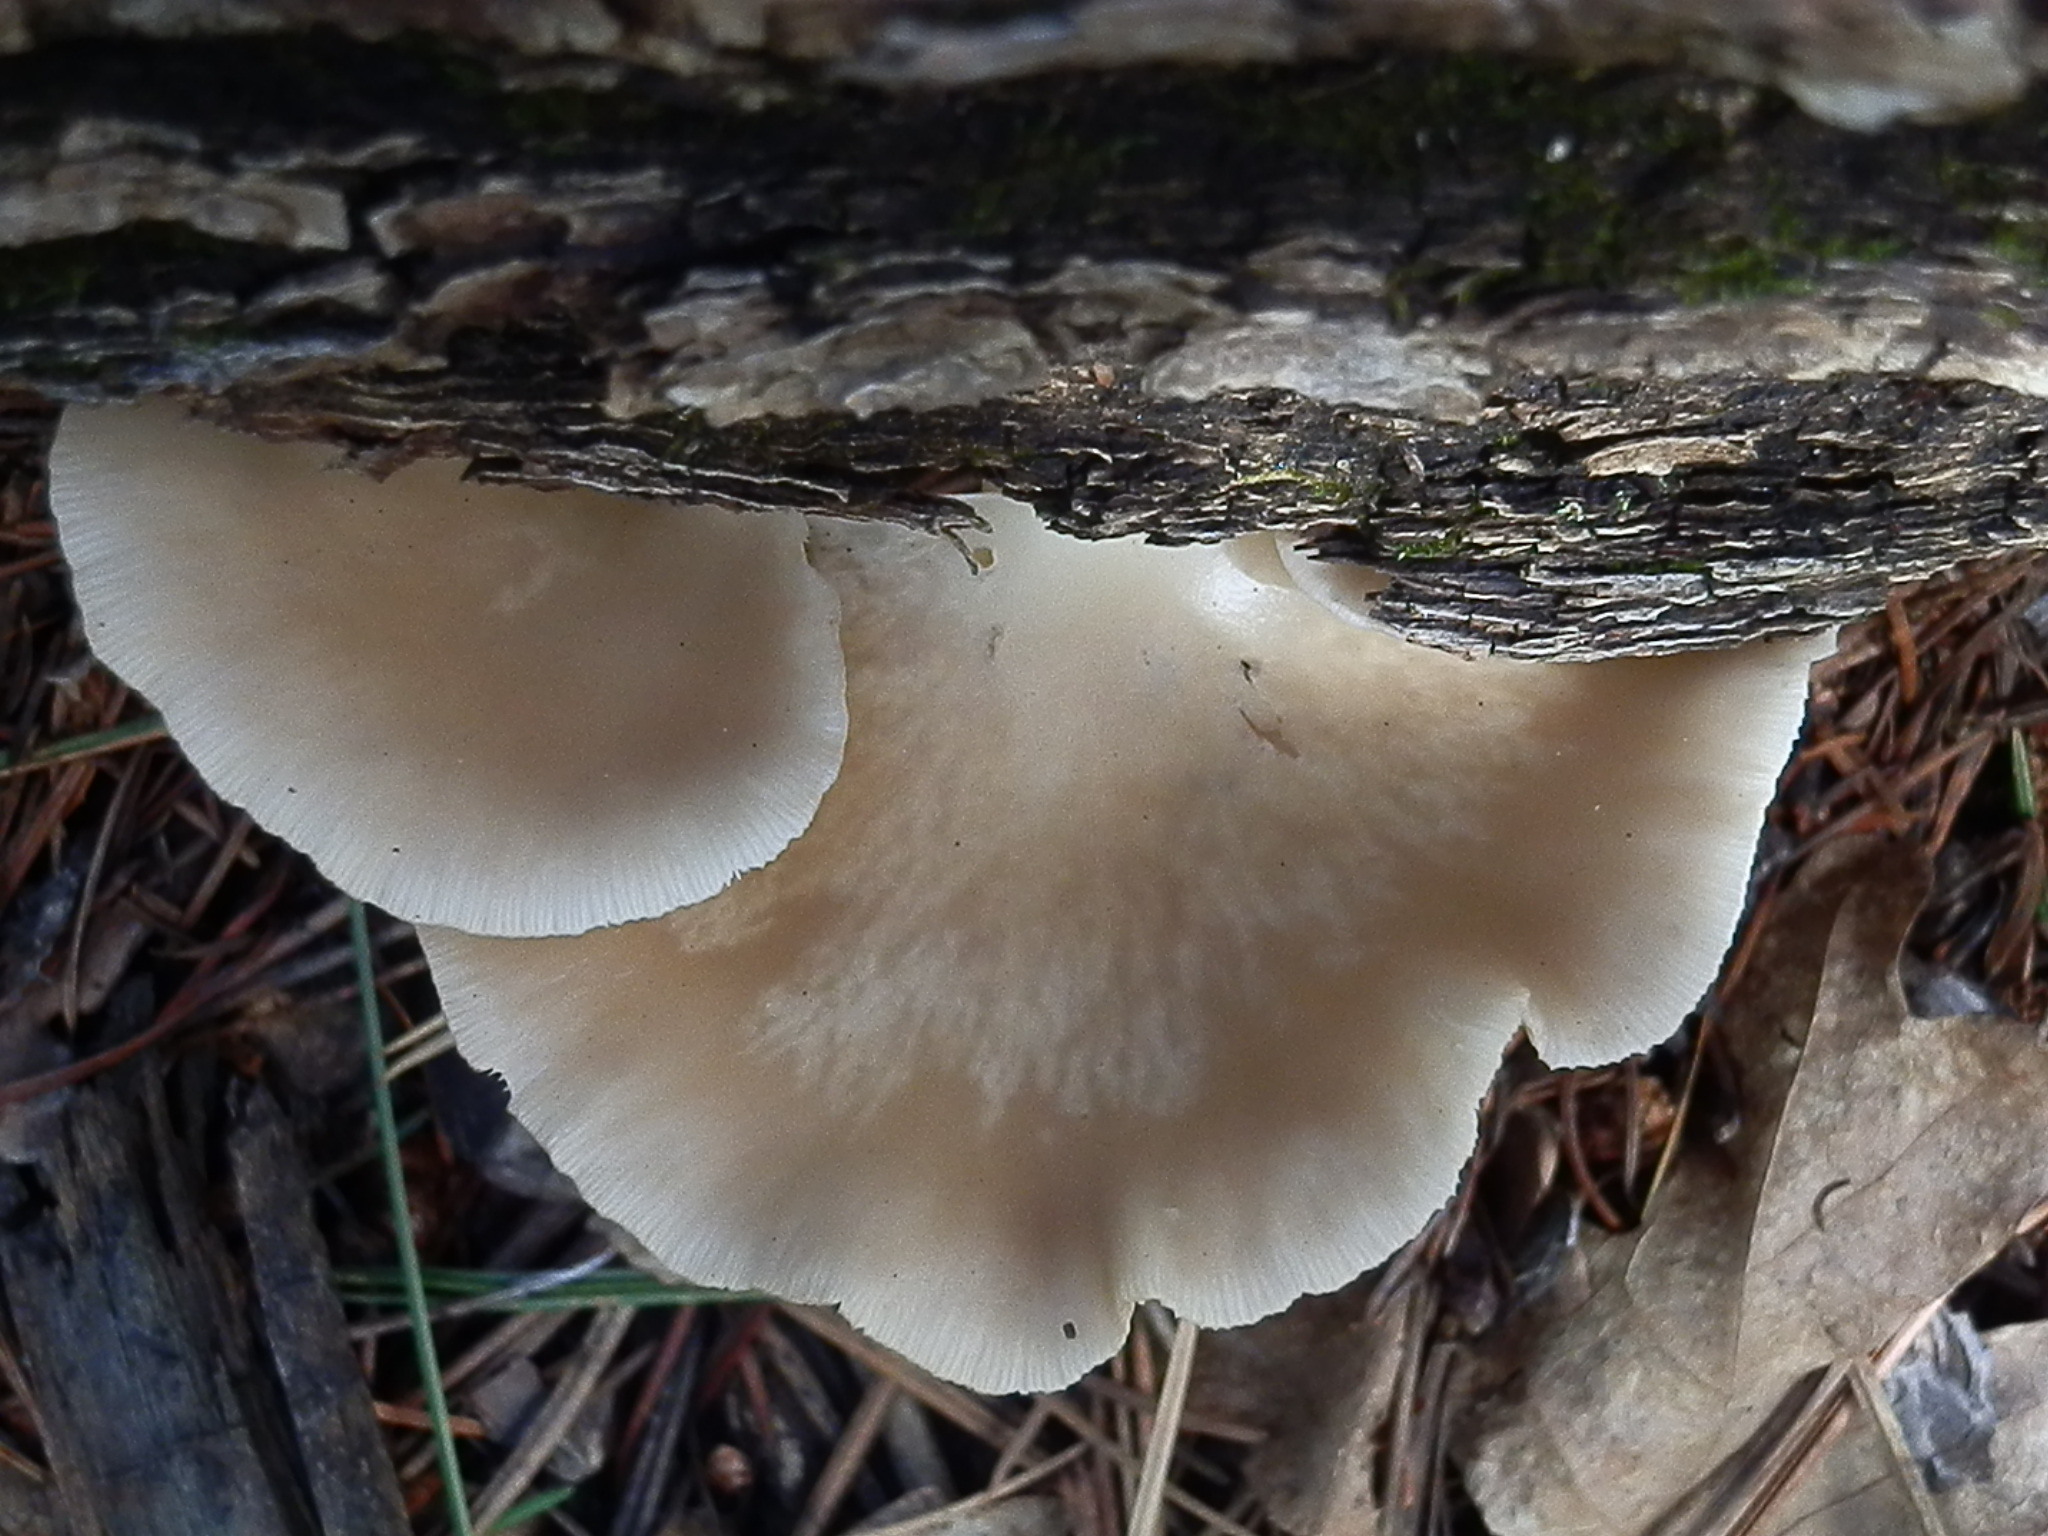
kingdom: Fungi
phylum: Basidiomycota
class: Agaricomycetes
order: Agaricales
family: Pleurotaceae
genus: Pleurotus
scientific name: Pleurotus pulmonarius
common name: Pale oyster
